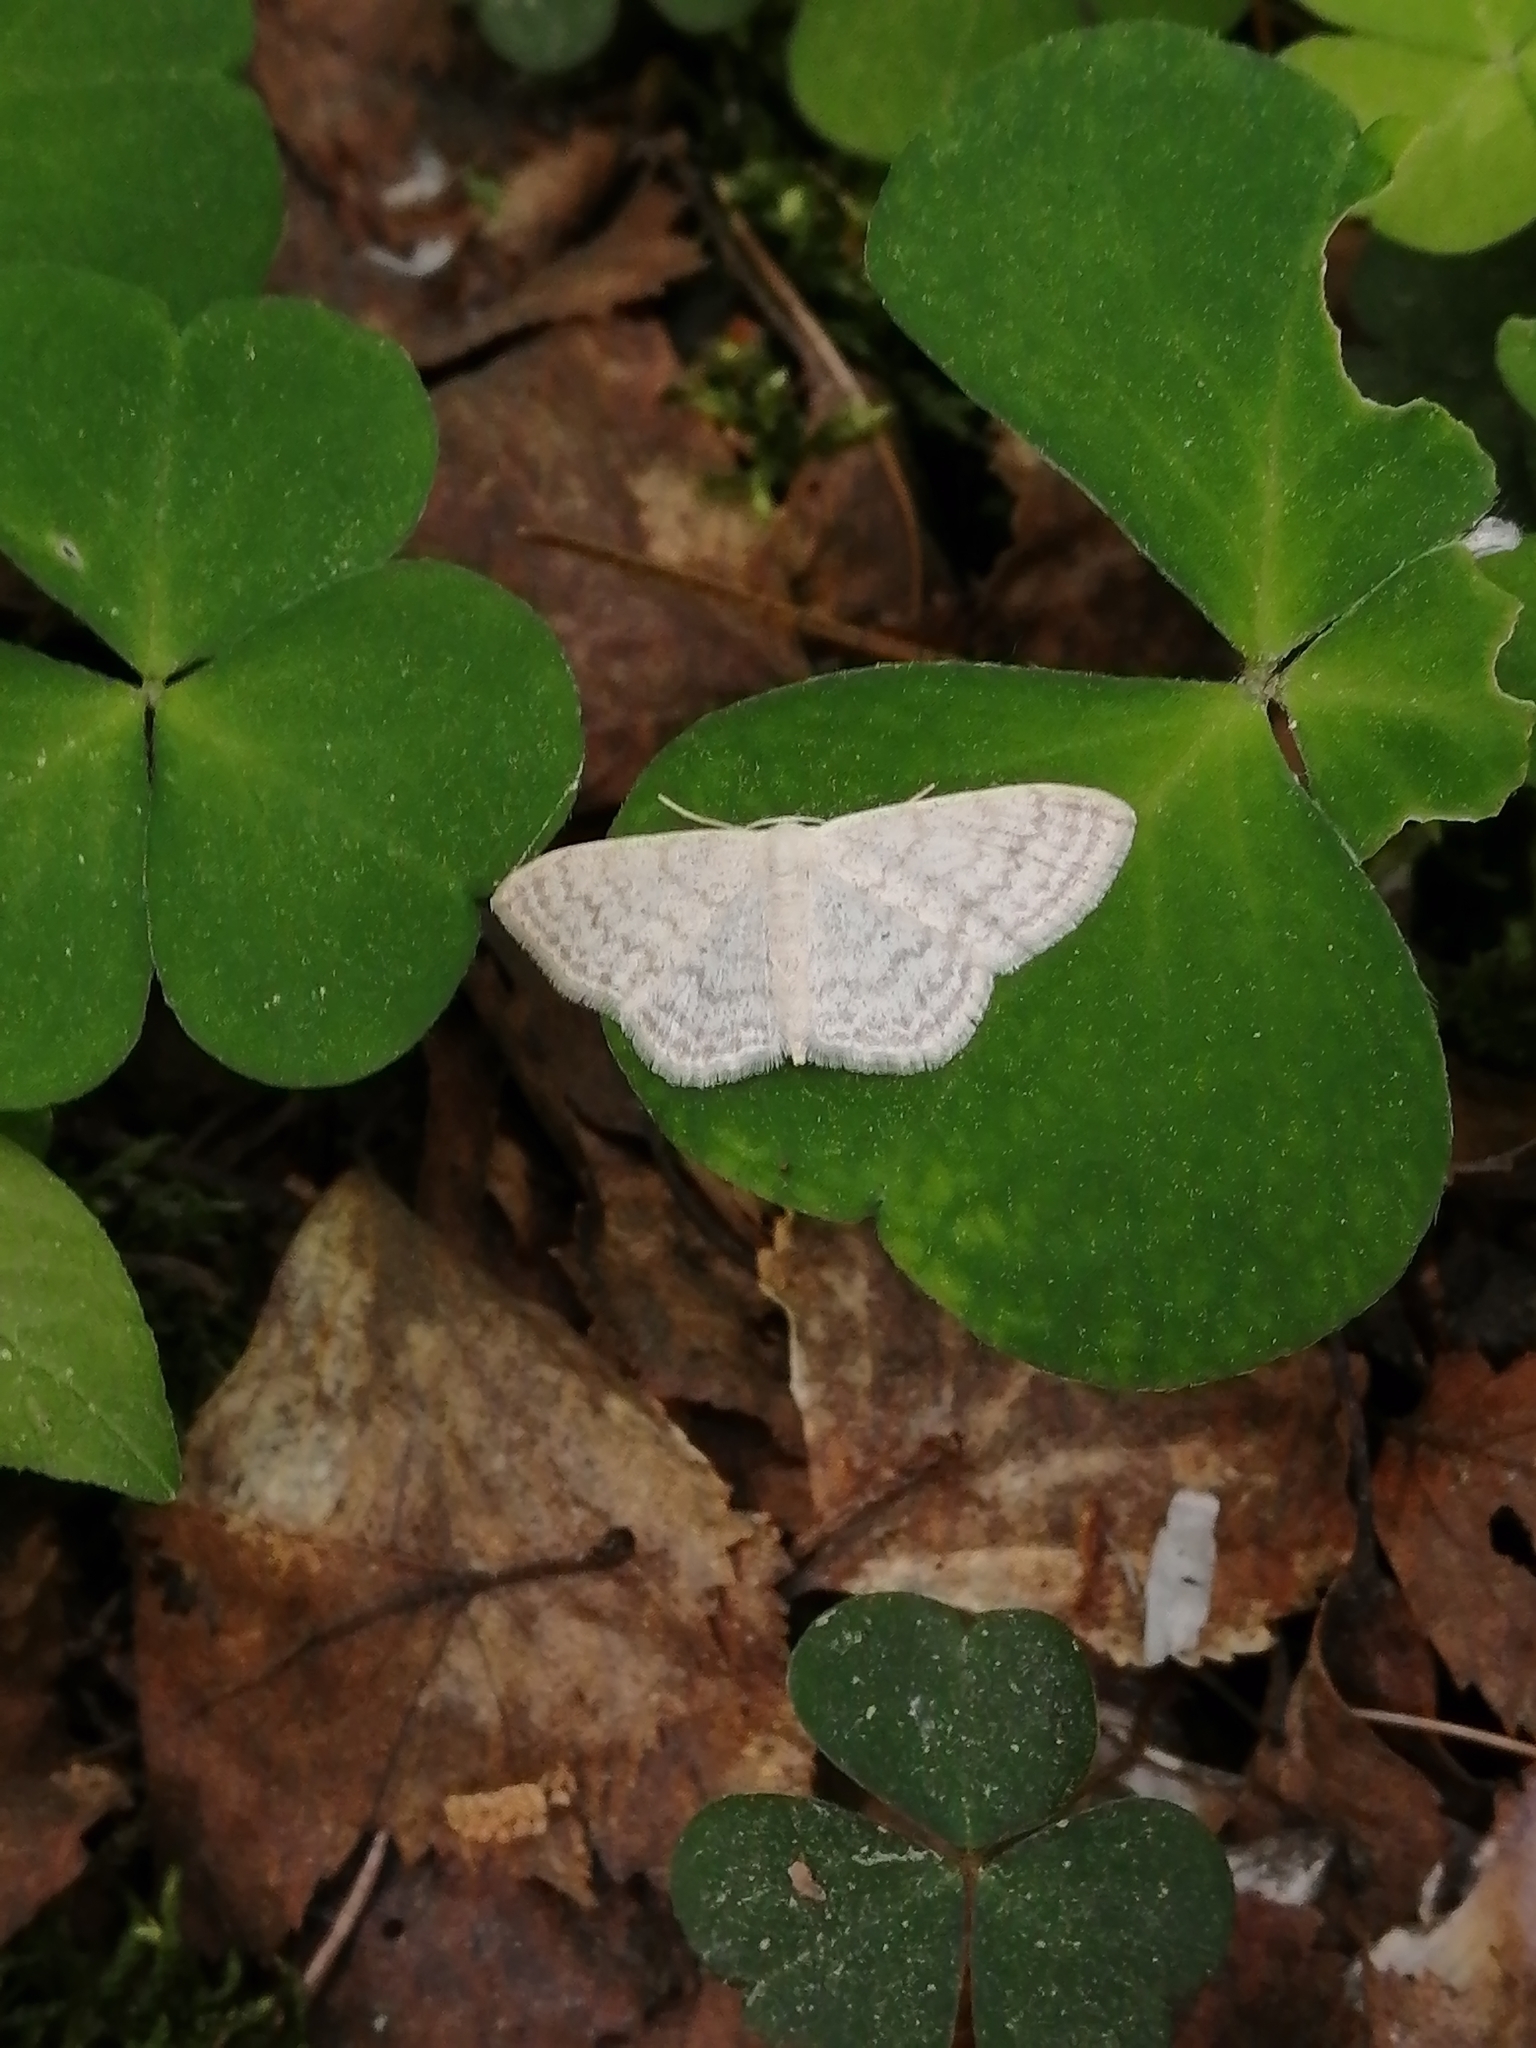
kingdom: Animalia
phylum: Arthropoda
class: Insecta
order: Lepidoptera
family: Geometridae
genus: Scopula
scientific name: Scopula floslactata
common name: Cream wave
